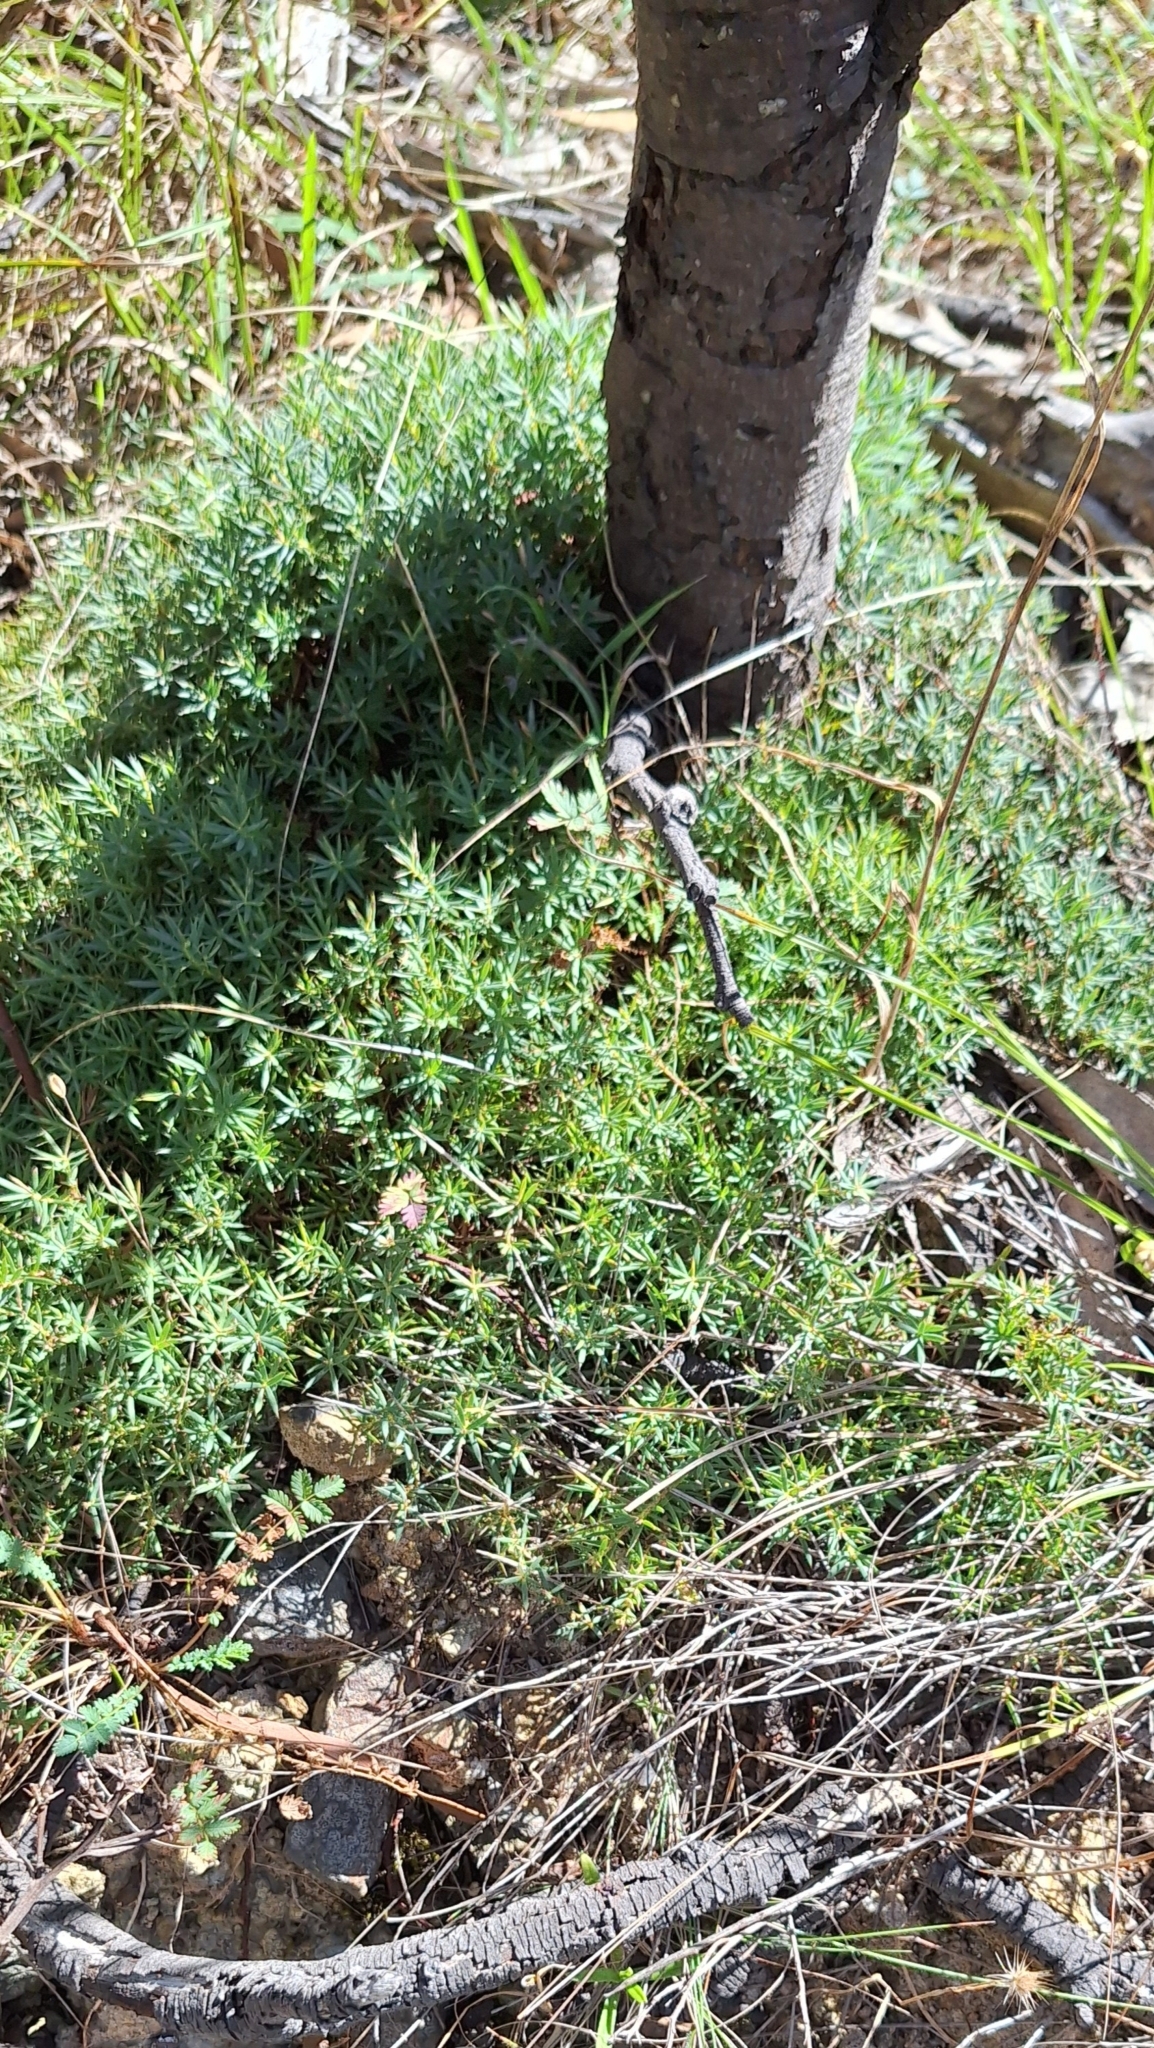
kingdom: Plantae
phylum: Tracheophyta
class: Magnoliopsida
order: Ericales
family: Ericaceae
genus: Styphelia
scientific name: Styphelia humifusa
